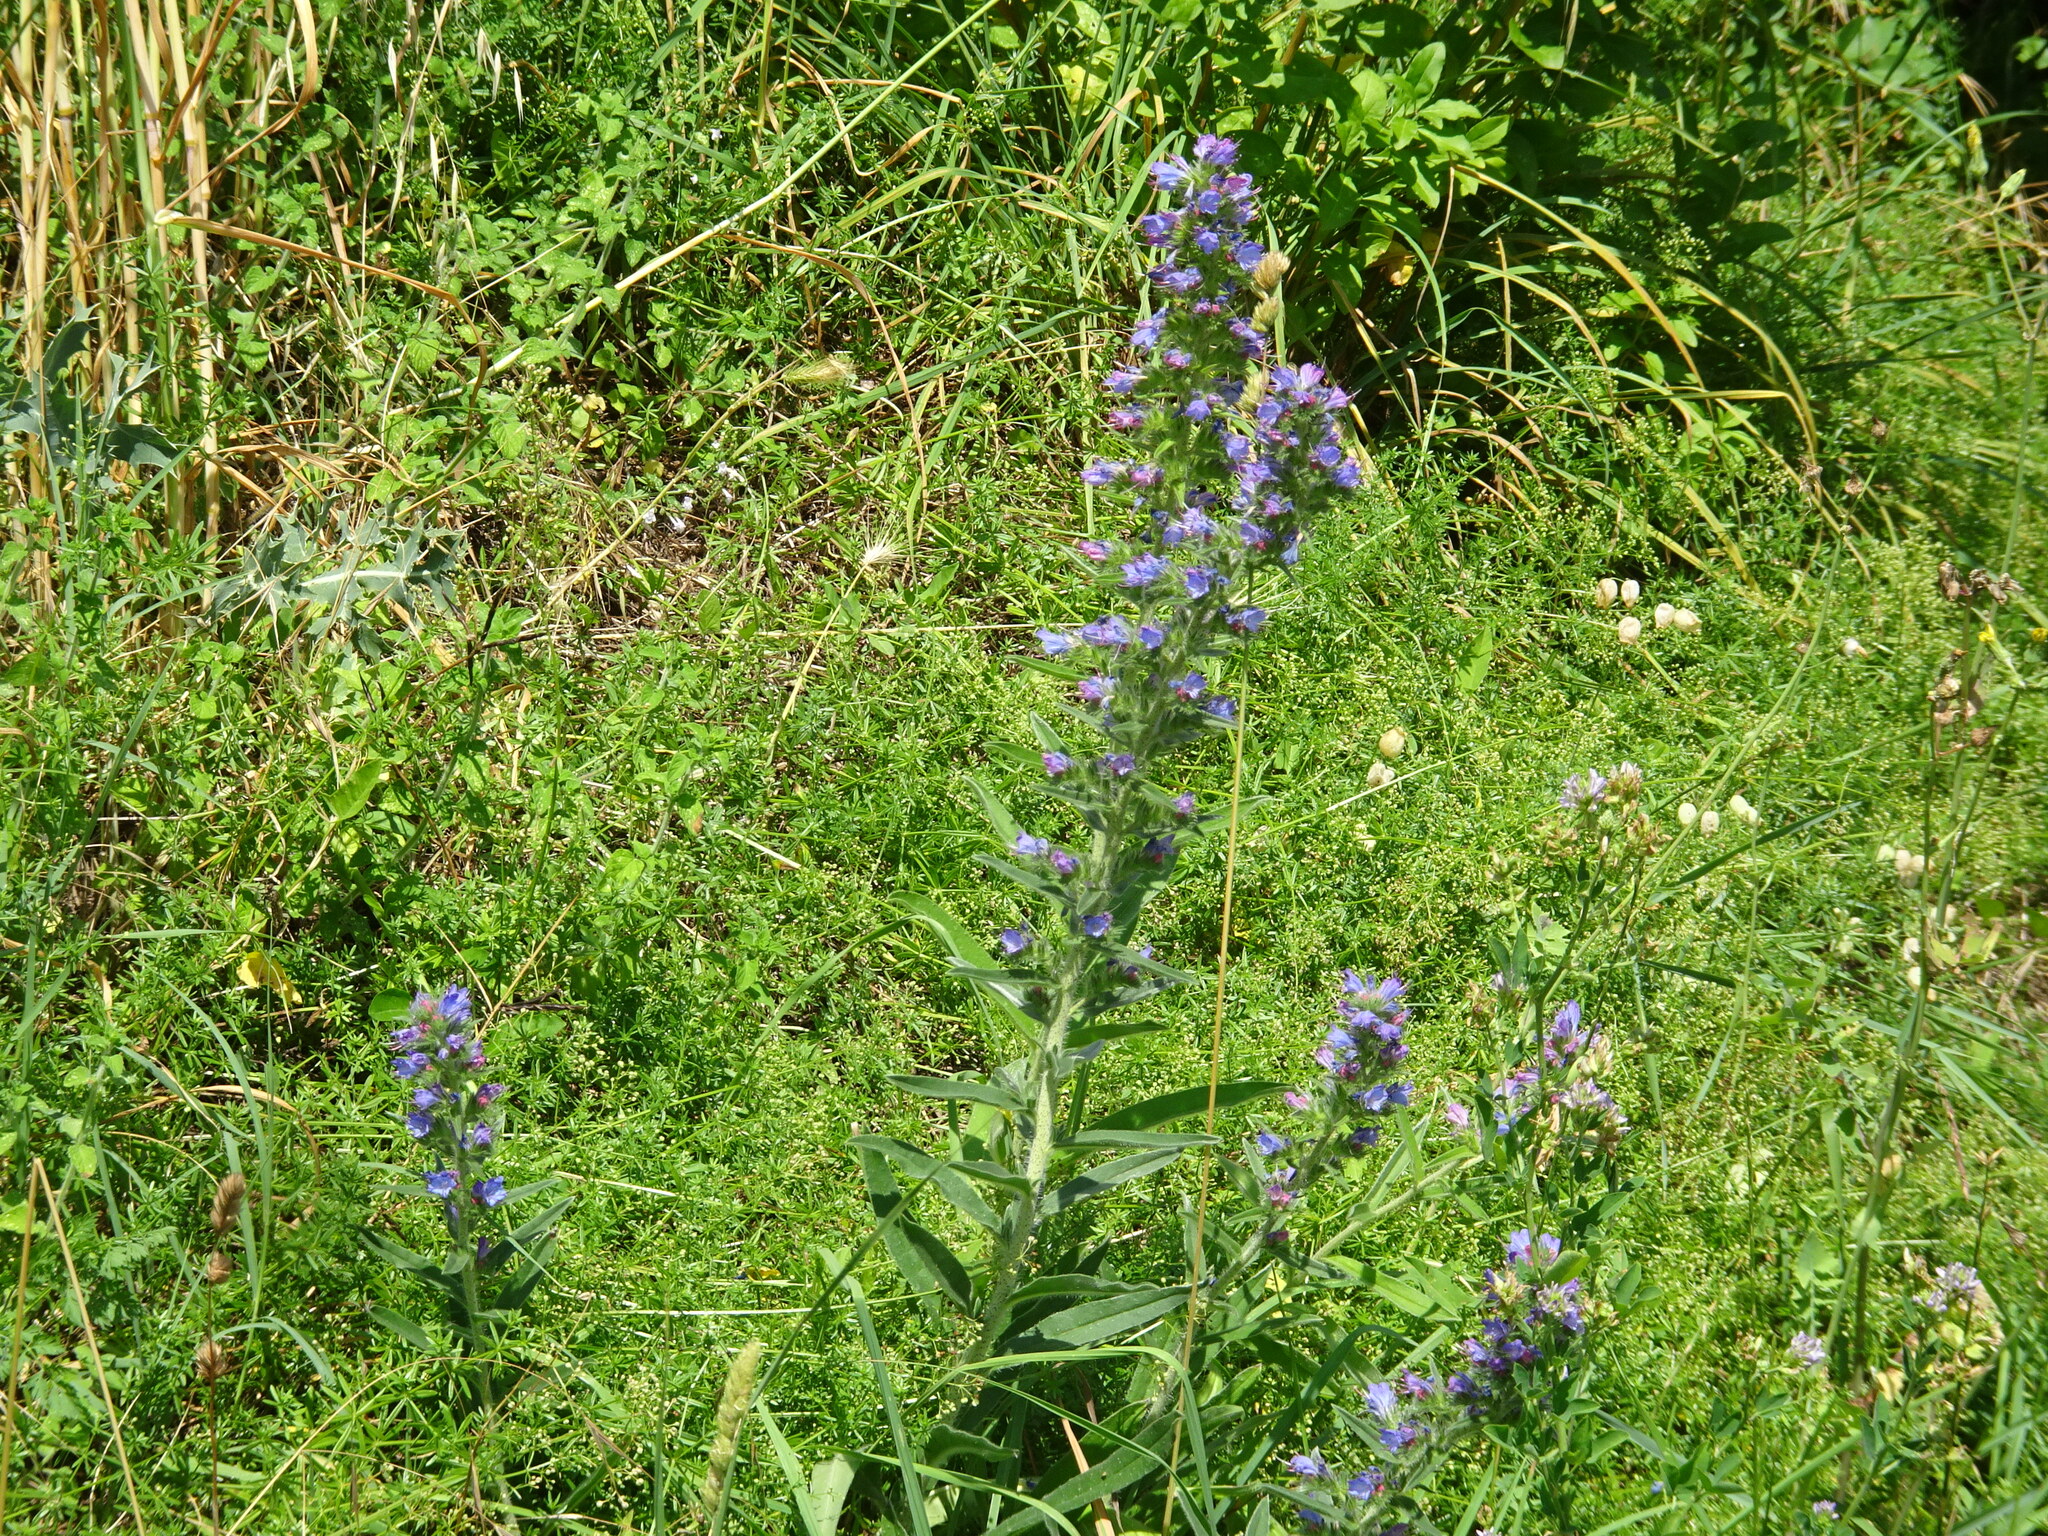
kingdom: Plantae
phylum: Tracheophyta
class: Magnoliopsida
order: Boraginales
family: Boraginaceae
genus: Echium
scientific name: Echium vulgare
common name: Common viper's bugloss
